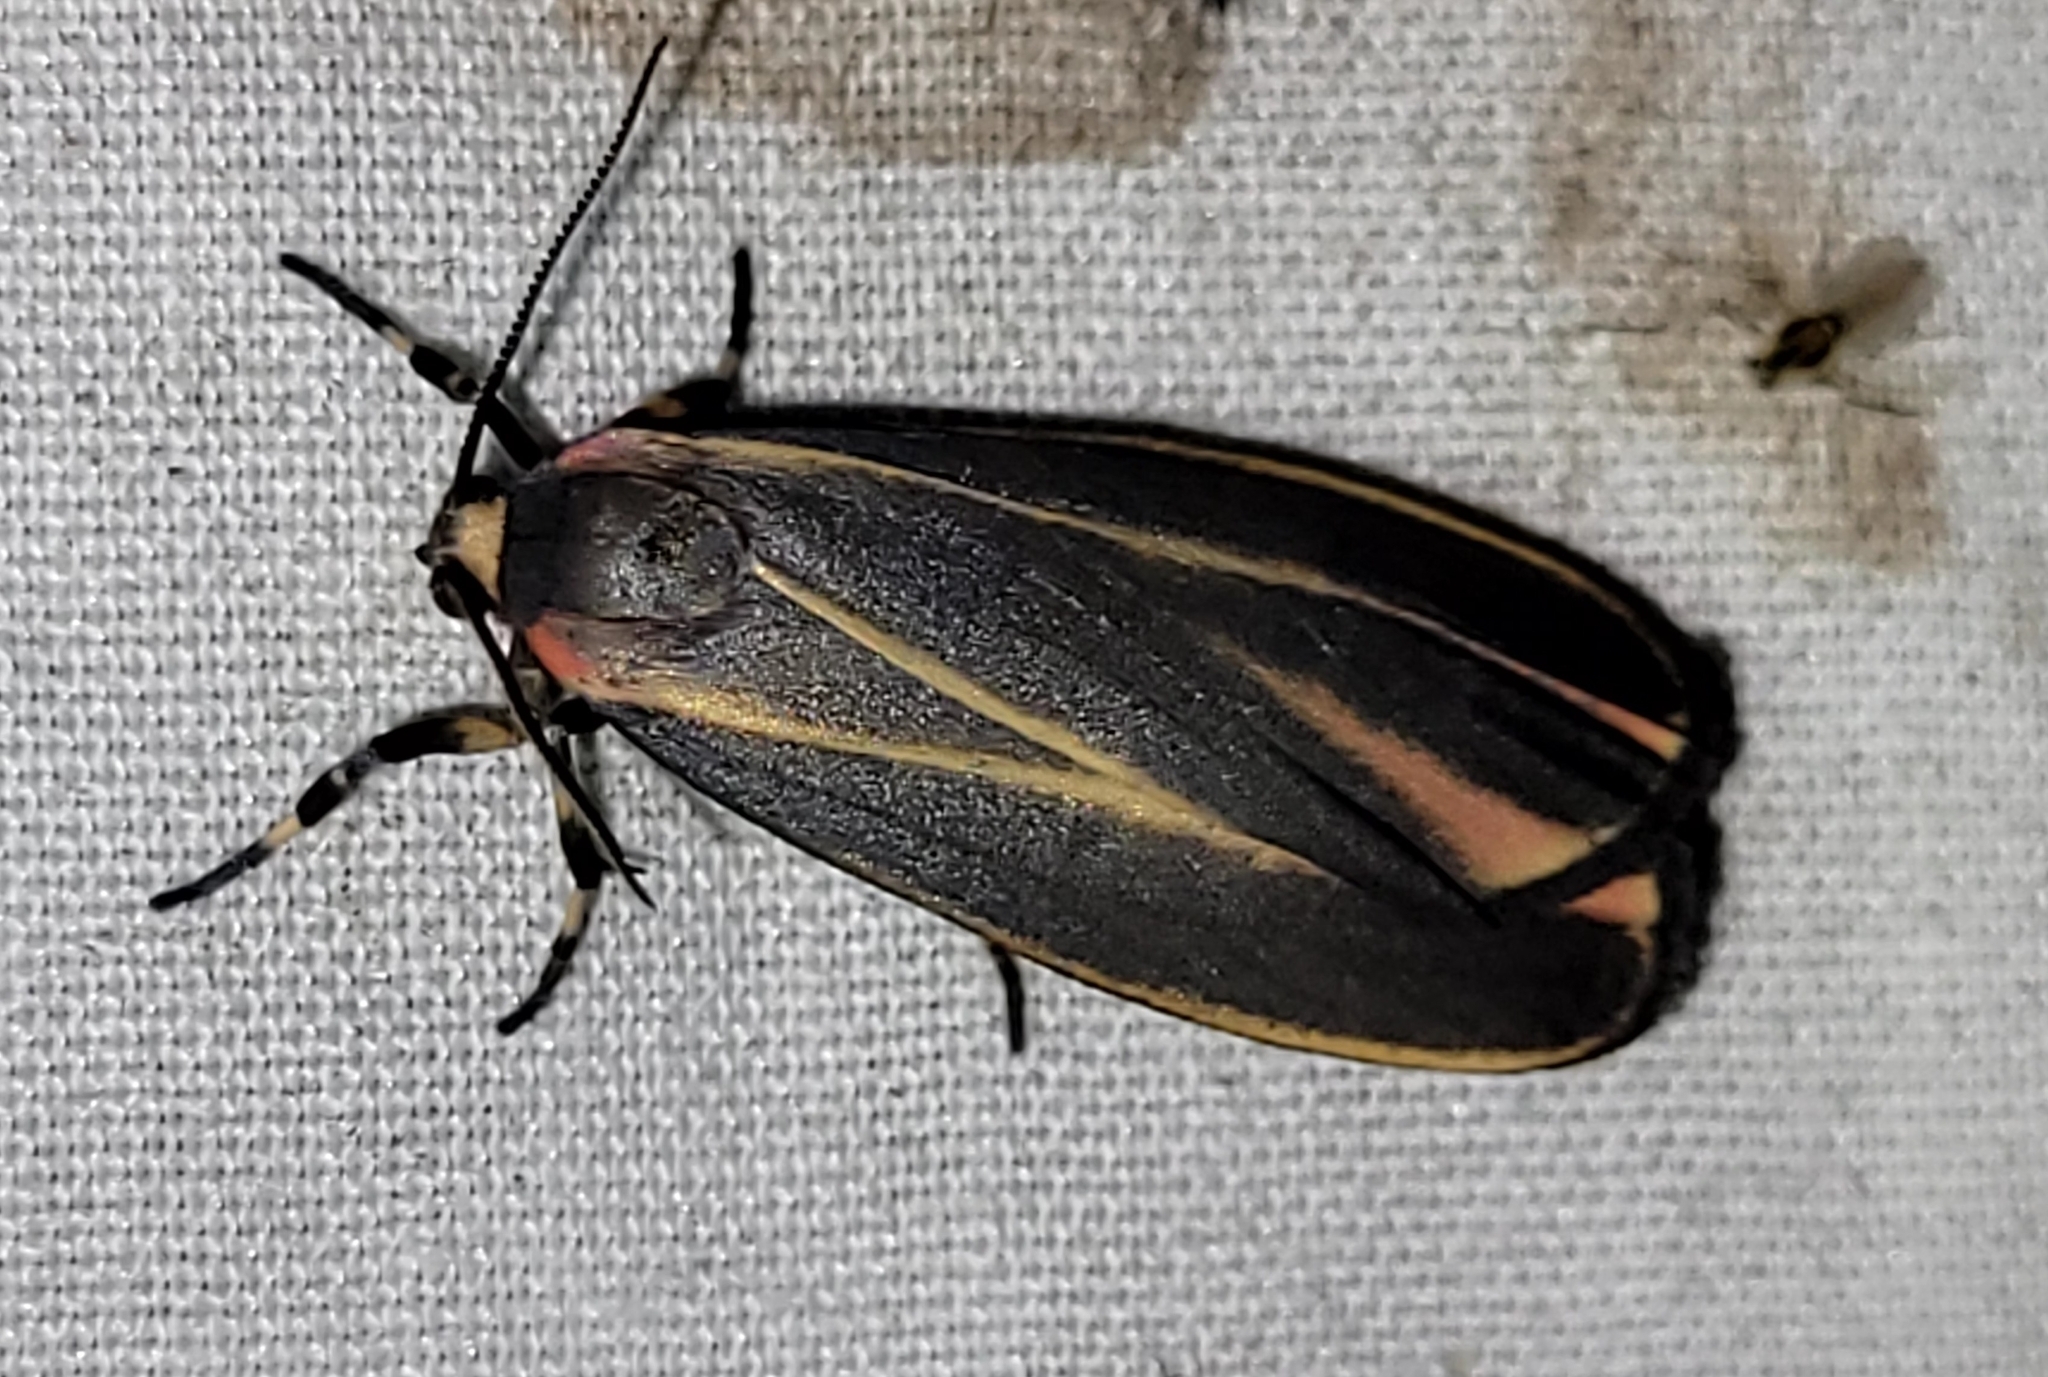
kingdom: Animalia
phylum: Arthropoda
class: Insecta
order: Lepidoptera
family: Erebidae
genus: Hypoprepia
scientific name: Hypoprepia fucosa
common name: Painted lichen moth
